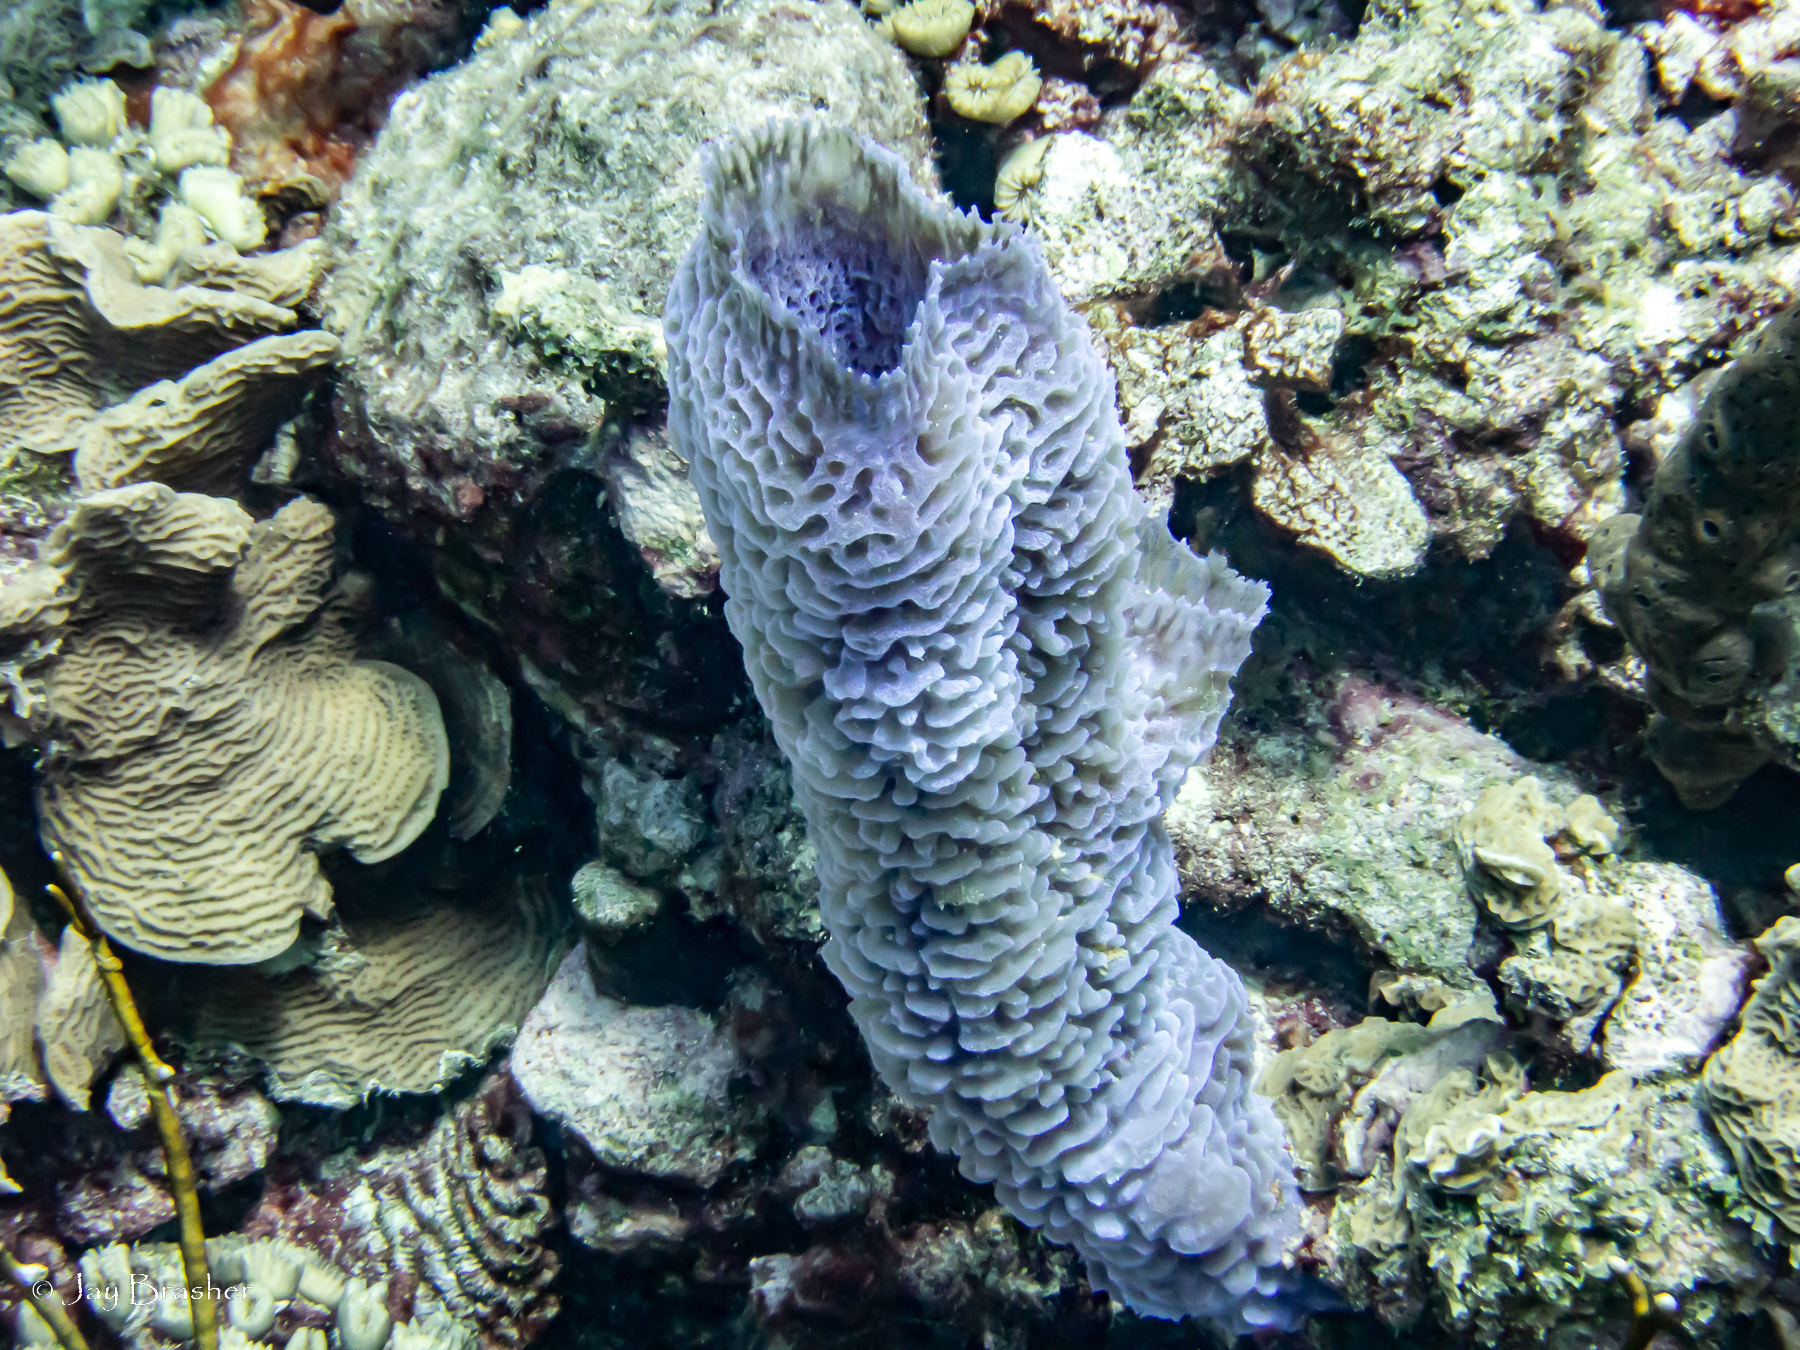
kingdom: Animalia
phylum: Porifera
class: Demospongiae
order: Haplosclerida
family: Callyspongiidae
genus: Callyspongia
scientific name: Callyspongia plicifera
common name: Azure vase sponge
